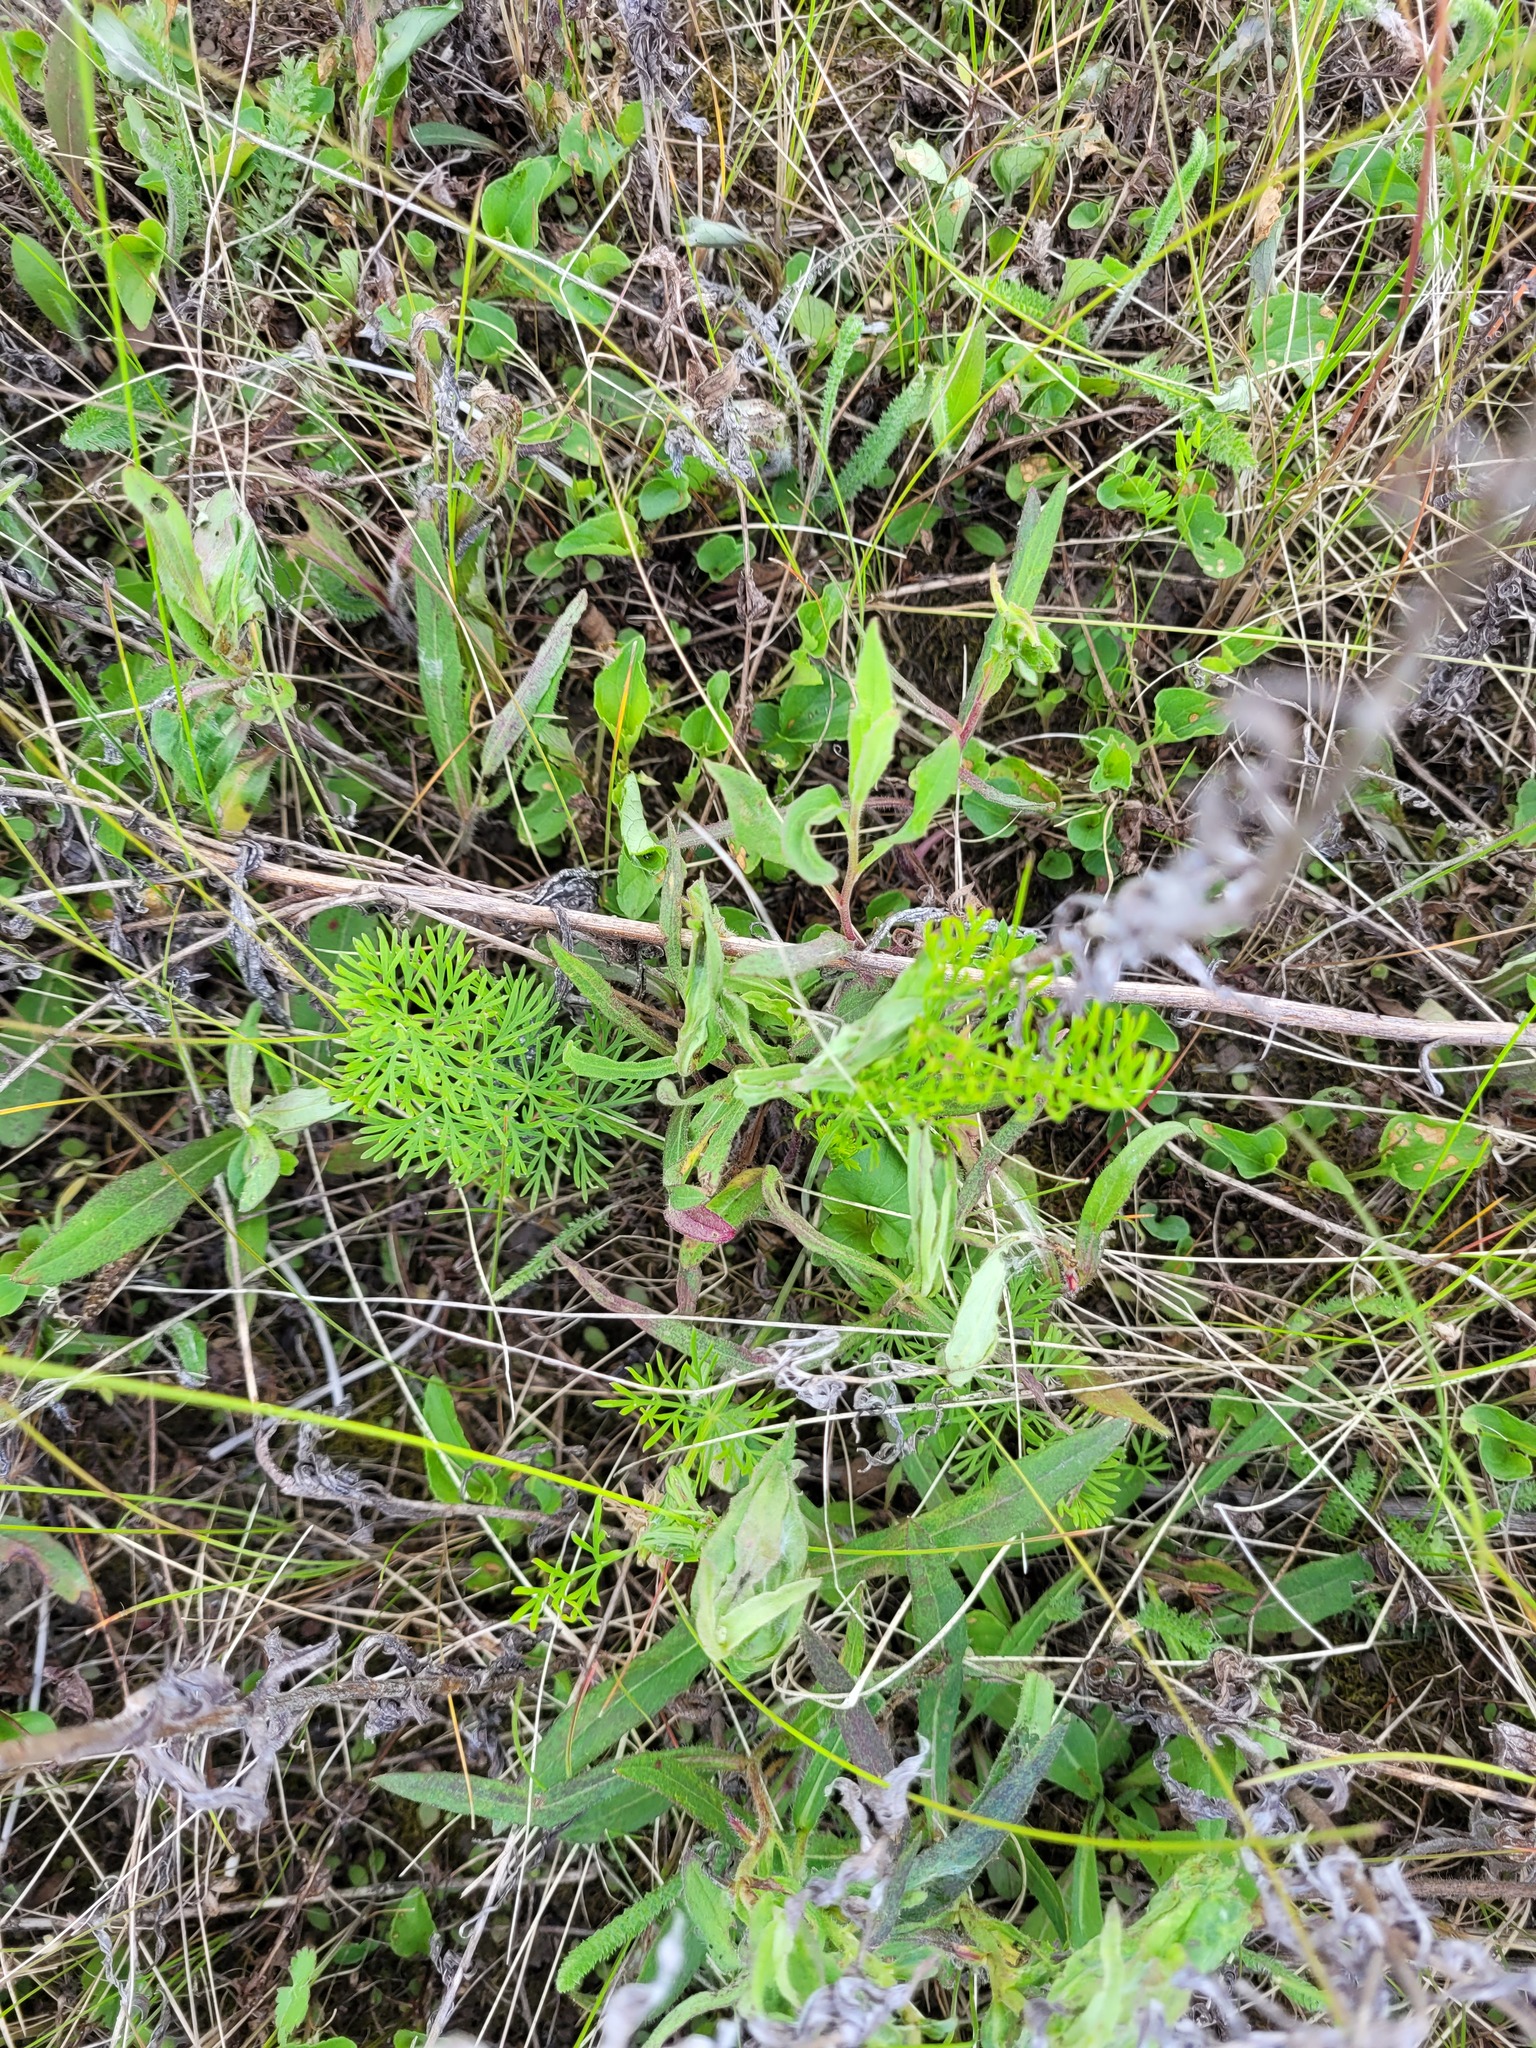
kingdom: Plantae
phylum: Tracheophyta
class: Magnoliopsida
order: Apiales
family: Apiaceae
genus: Seseli
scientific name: Seseli annuum
